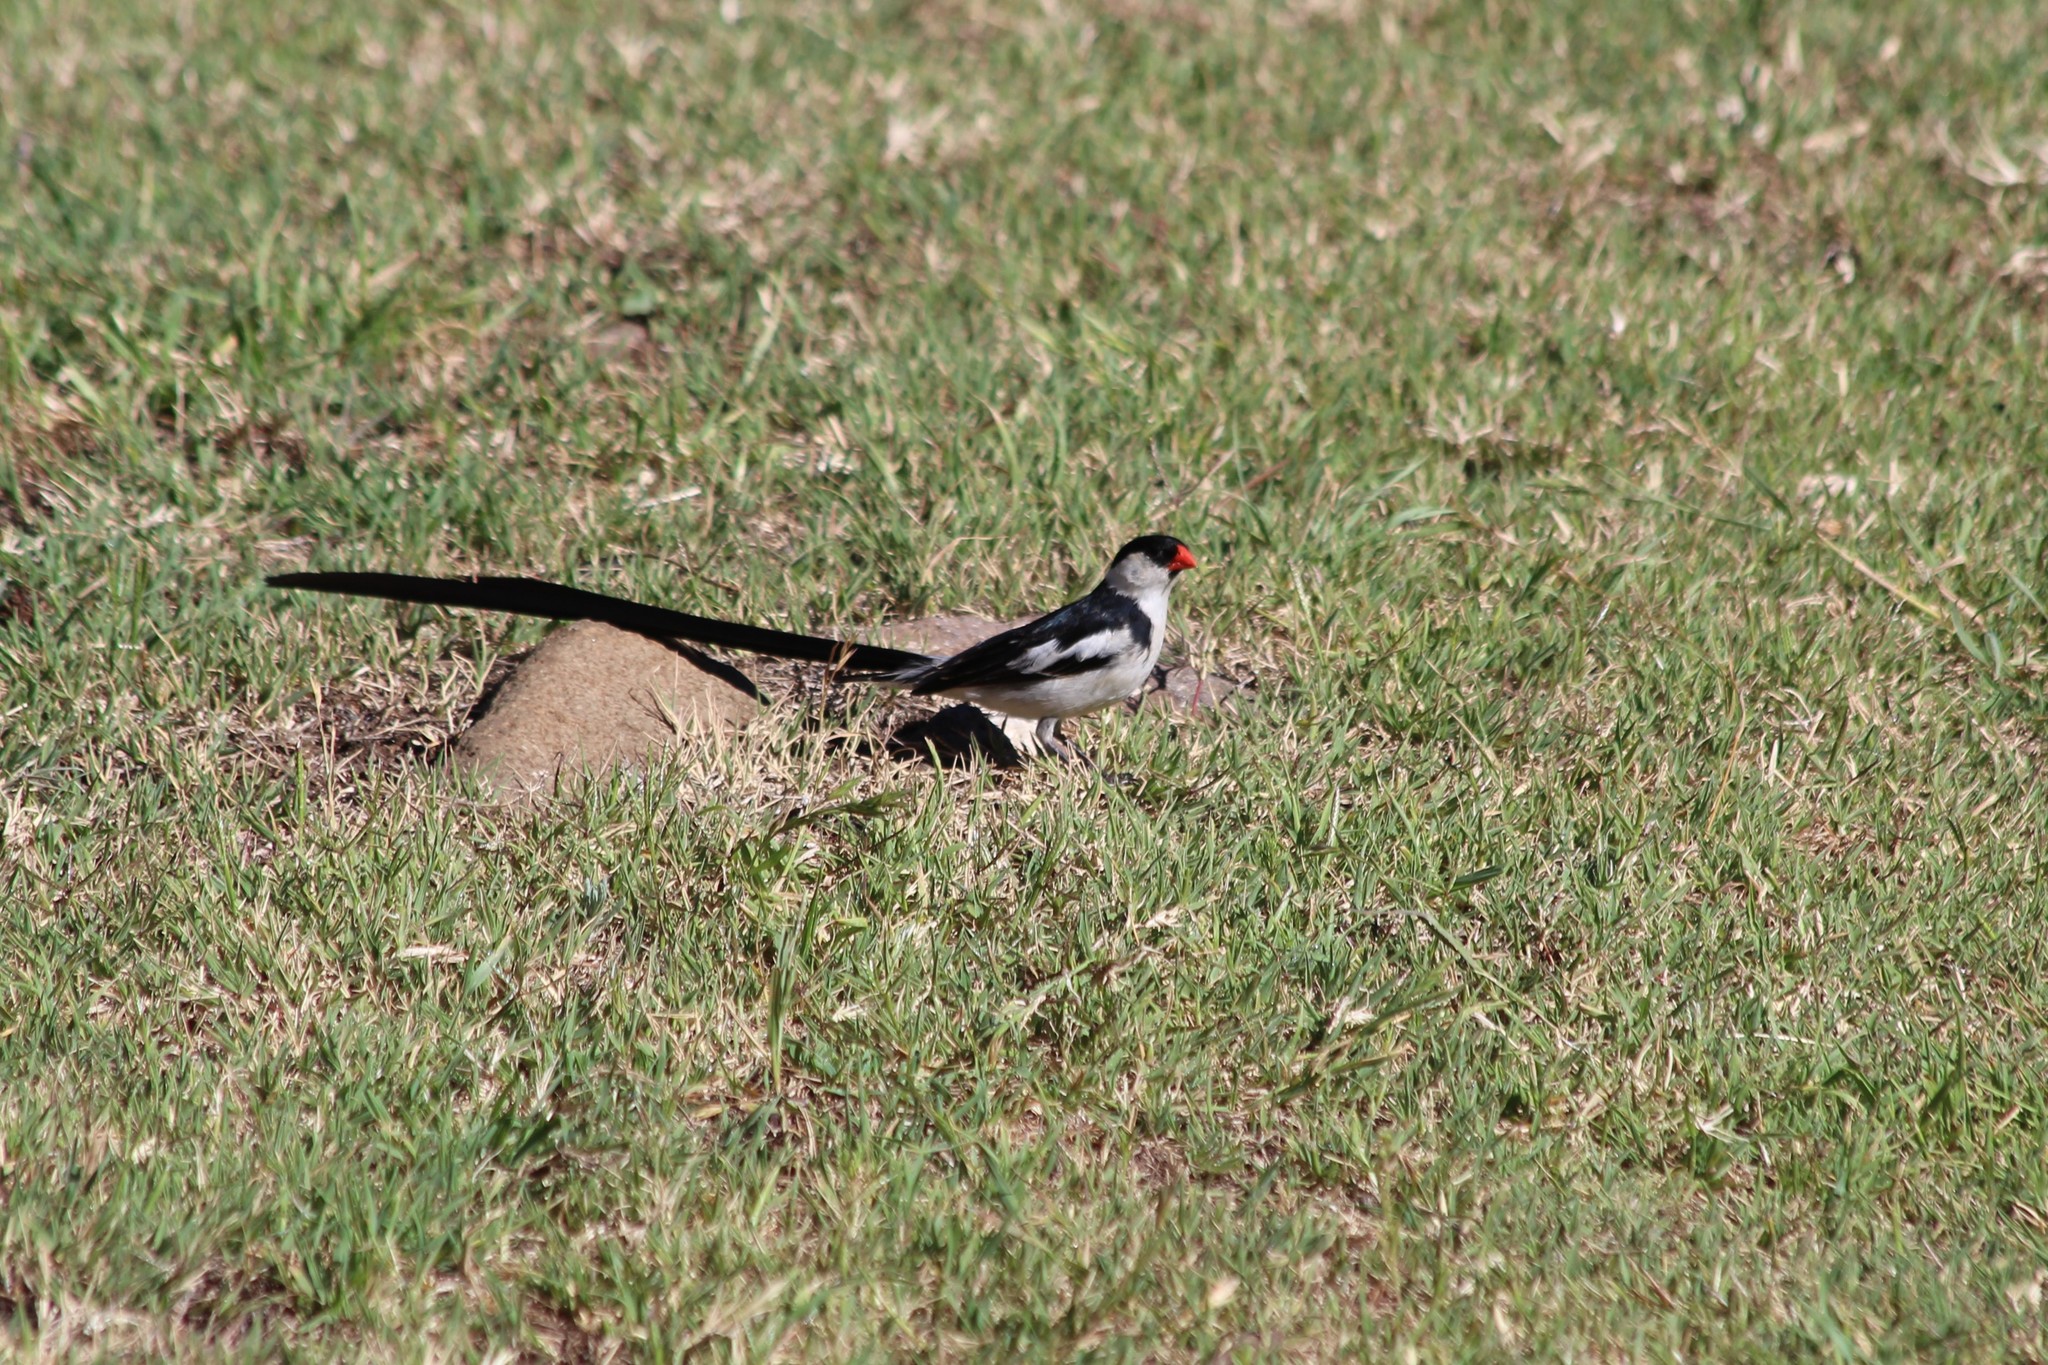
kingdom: Animalia
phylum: Chordata
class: Aves
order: Passeriformes
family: Viduidae
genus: Vidua
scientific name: Vidua macroura
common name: Pin-tailed whydah
